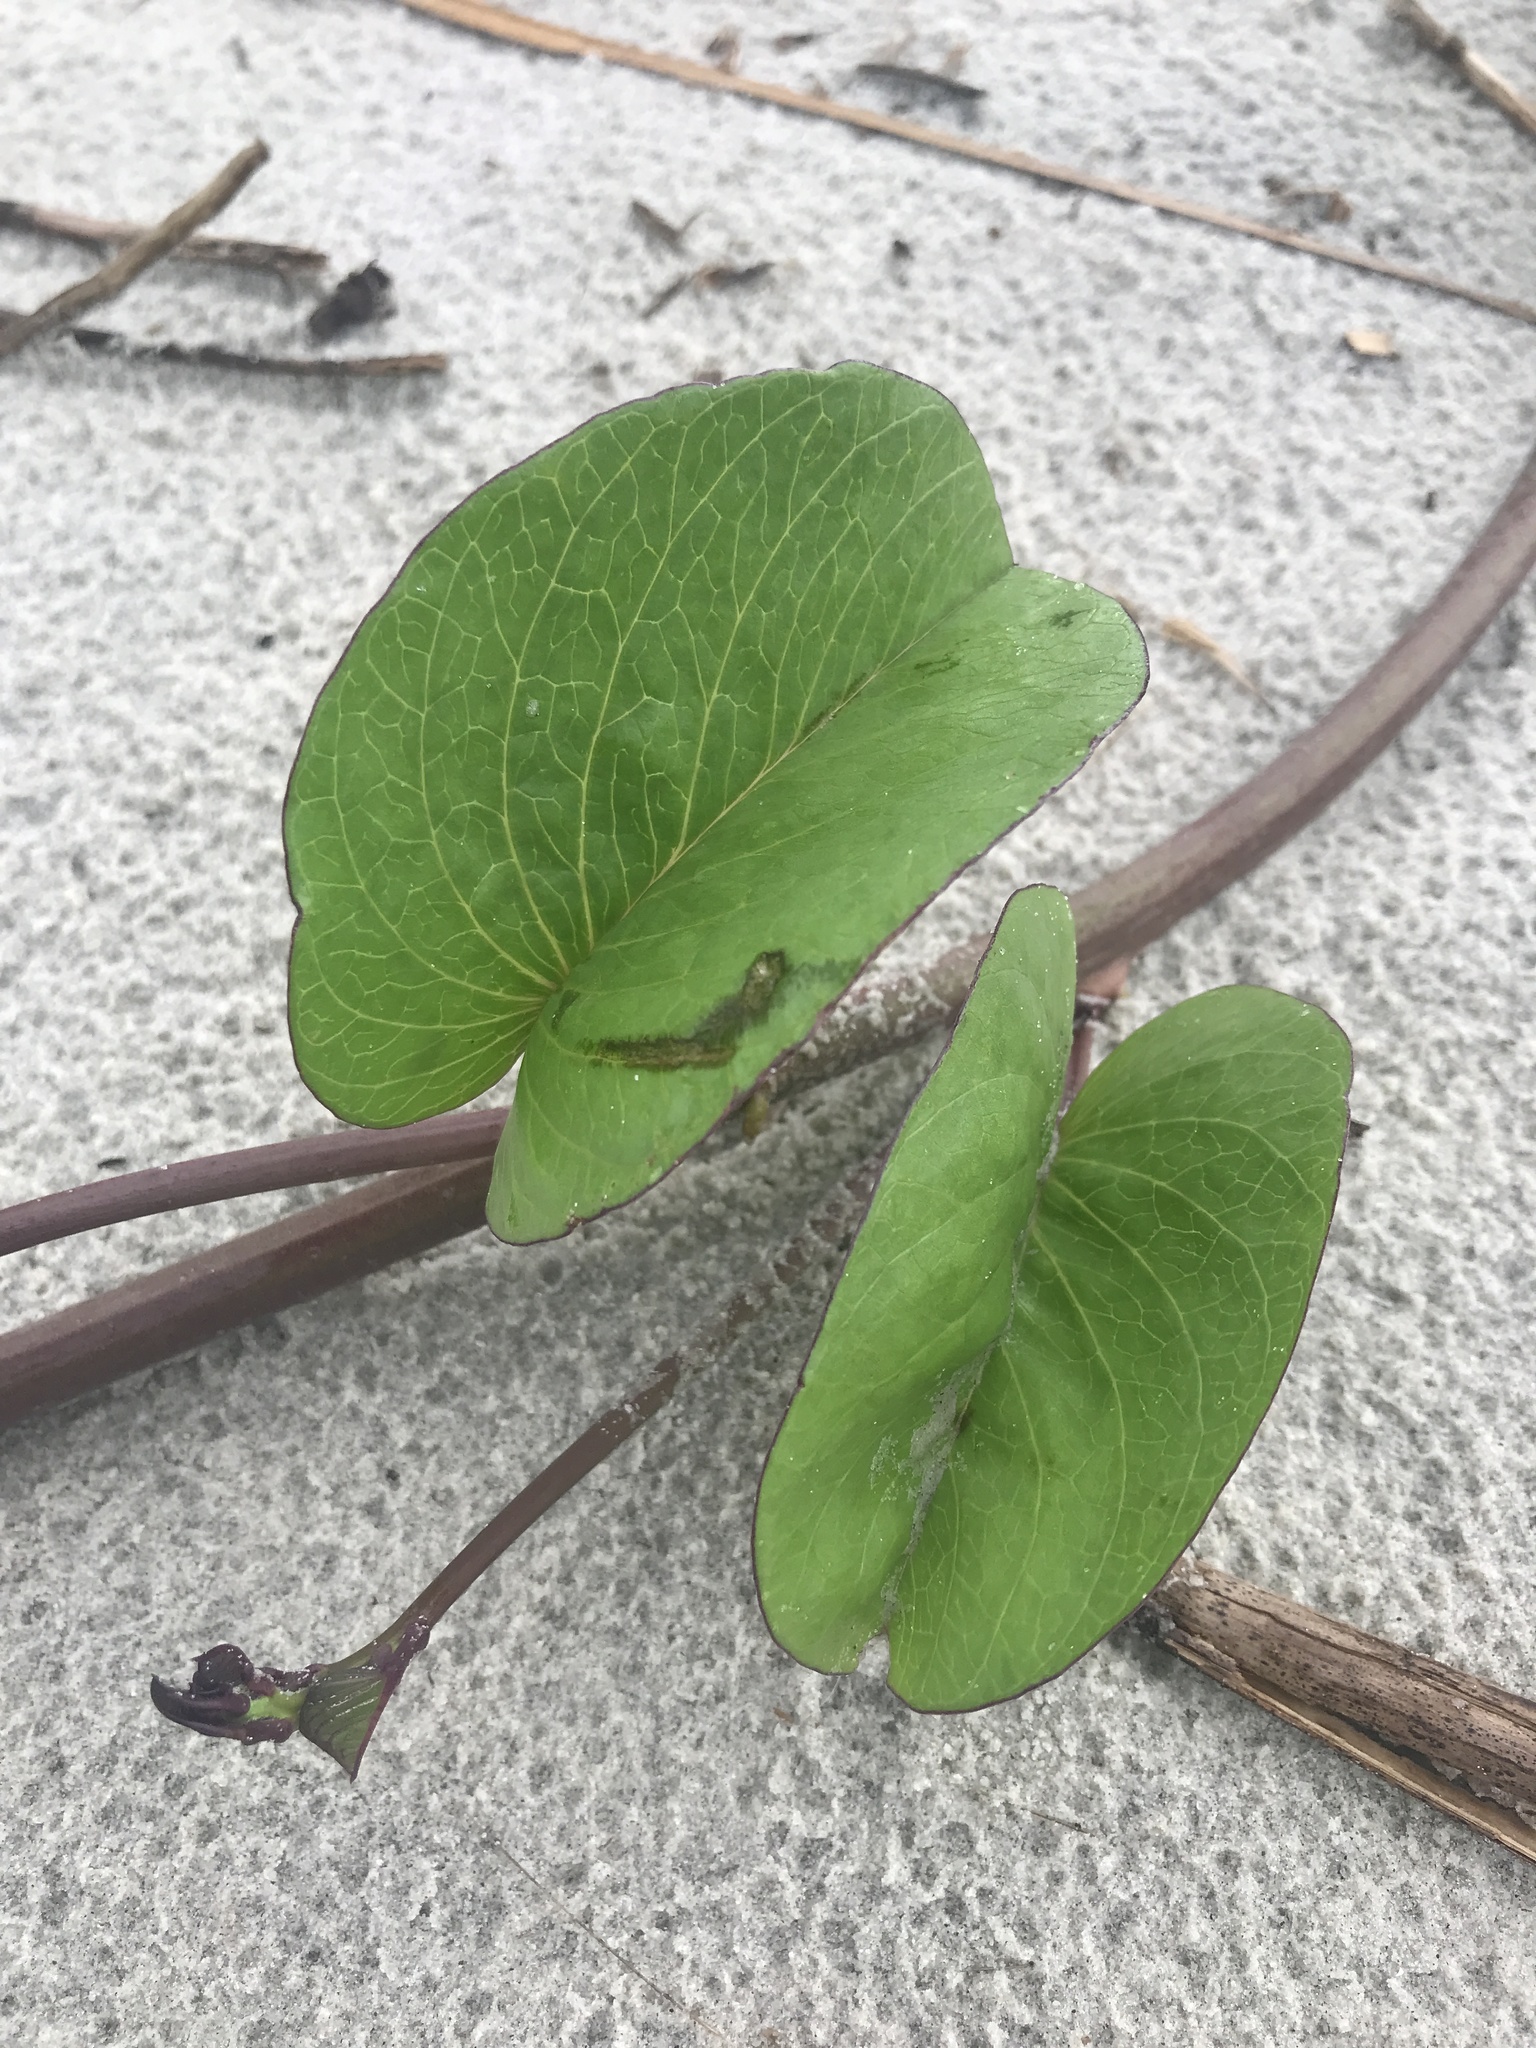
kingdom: Plantae
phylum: Tracheophyta
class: Magnoliopsida
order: Solanales
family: Convolvulaceae
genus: Ipomoea
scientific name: Ipomoea pes-caprae
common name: Beach morning glory
